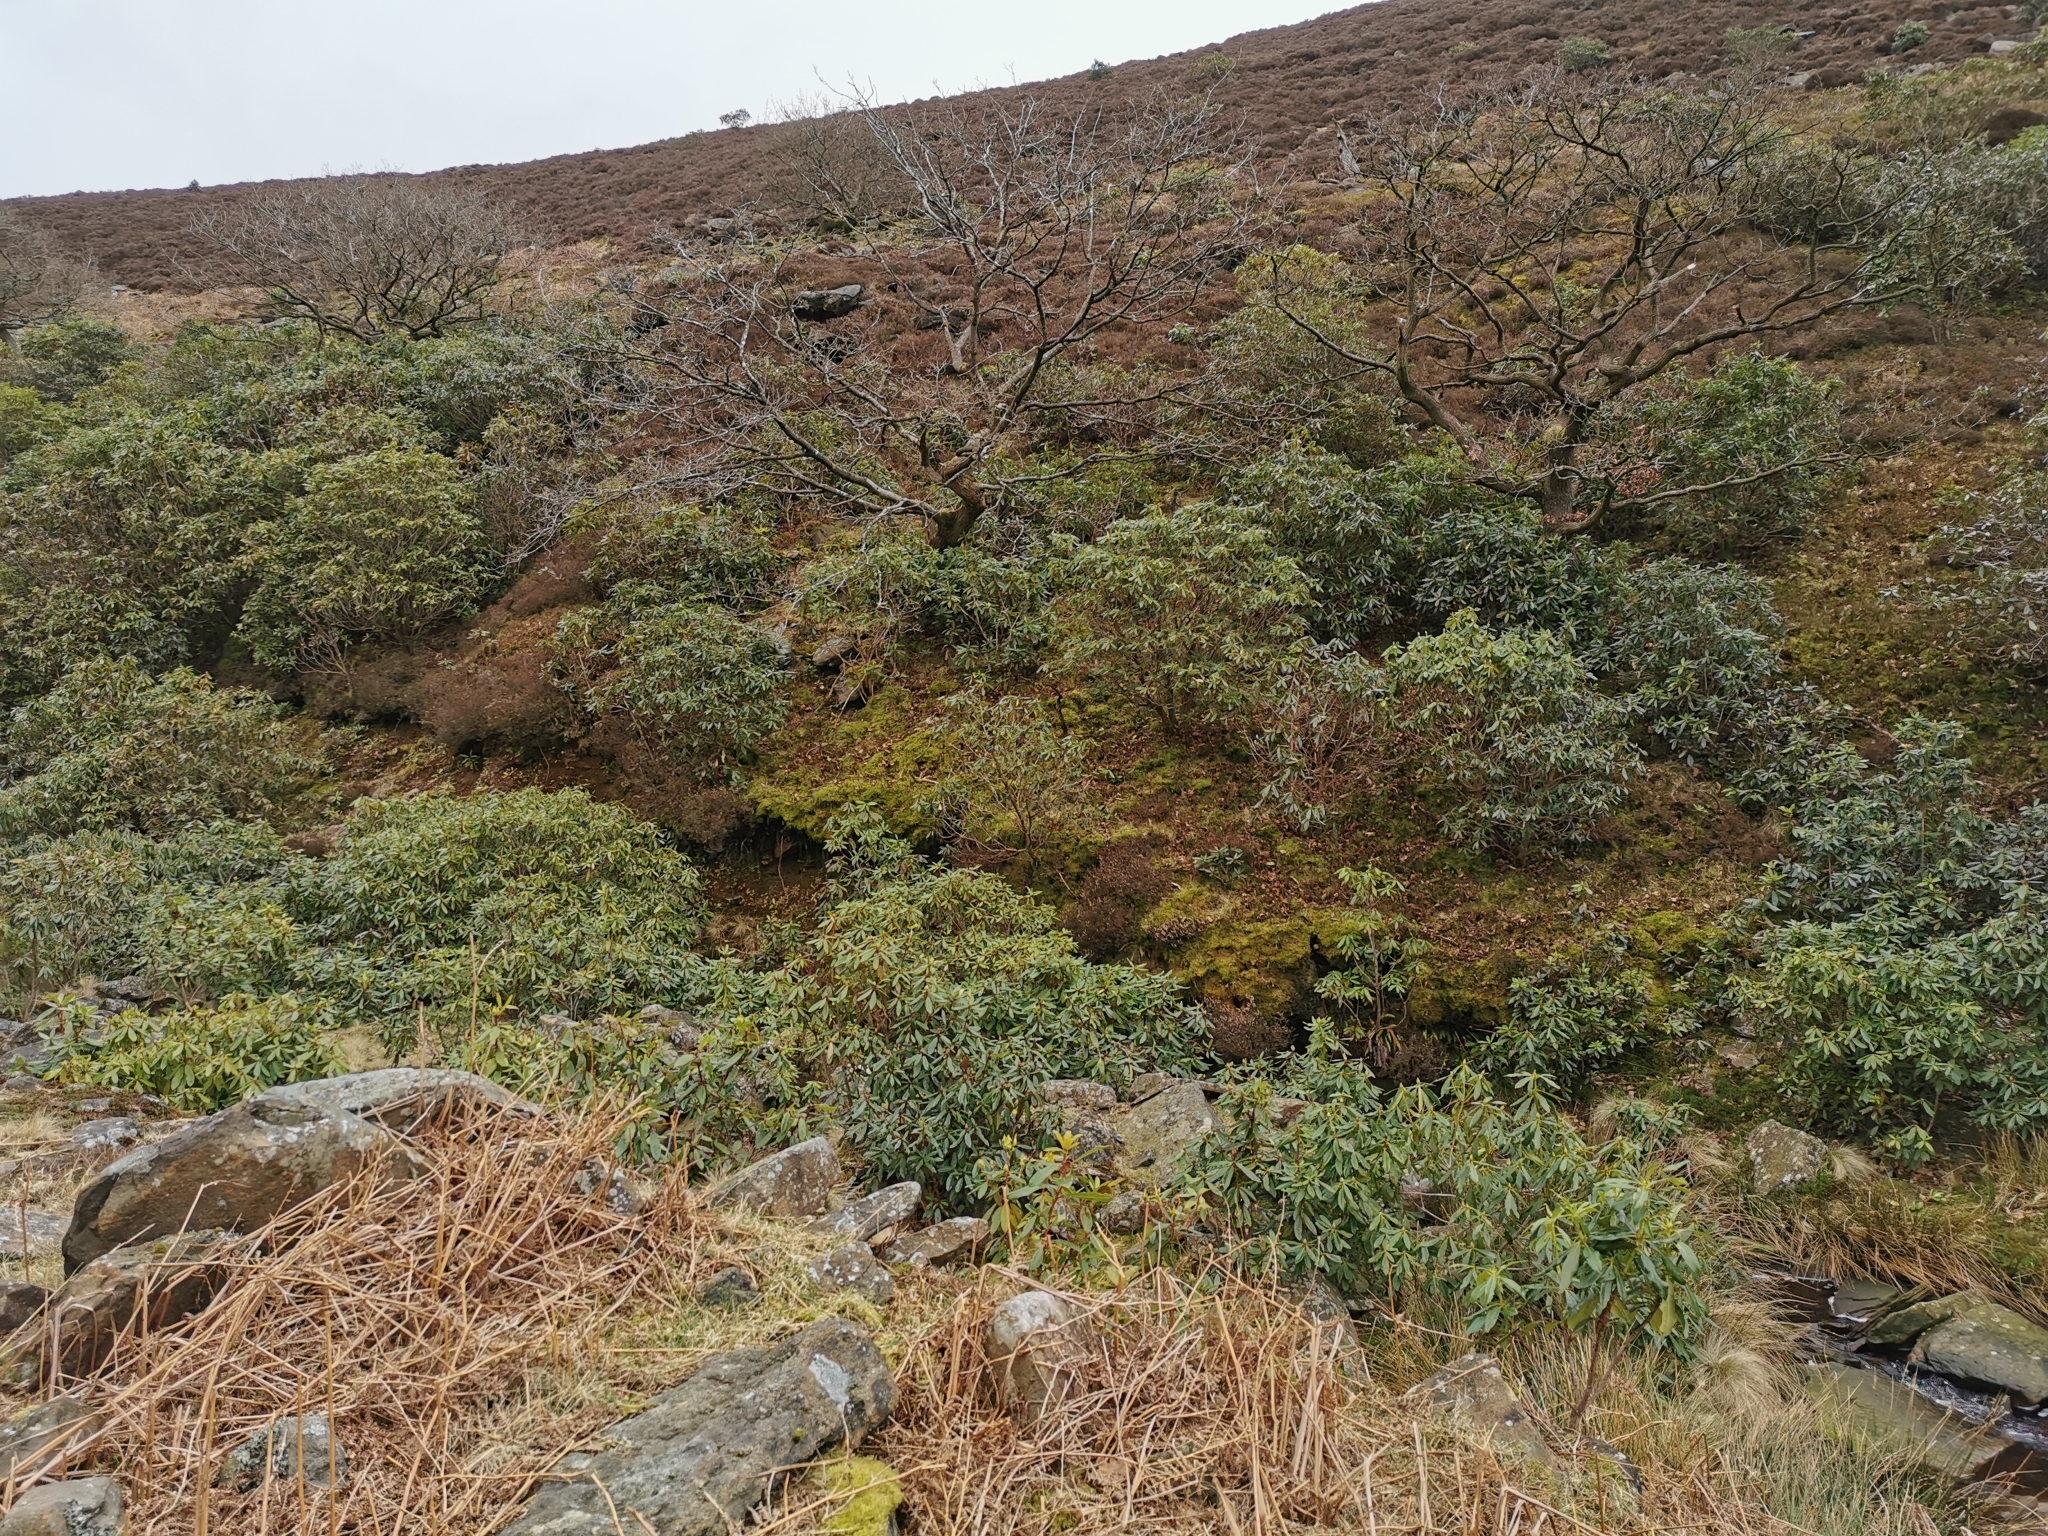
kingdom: Plantae
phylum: Tracheophyta
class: Magnoliopsida
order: Ericales
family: Ericaceae
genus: Rhododendron
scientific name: Rhododendron ponticum
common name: Rhododendron
